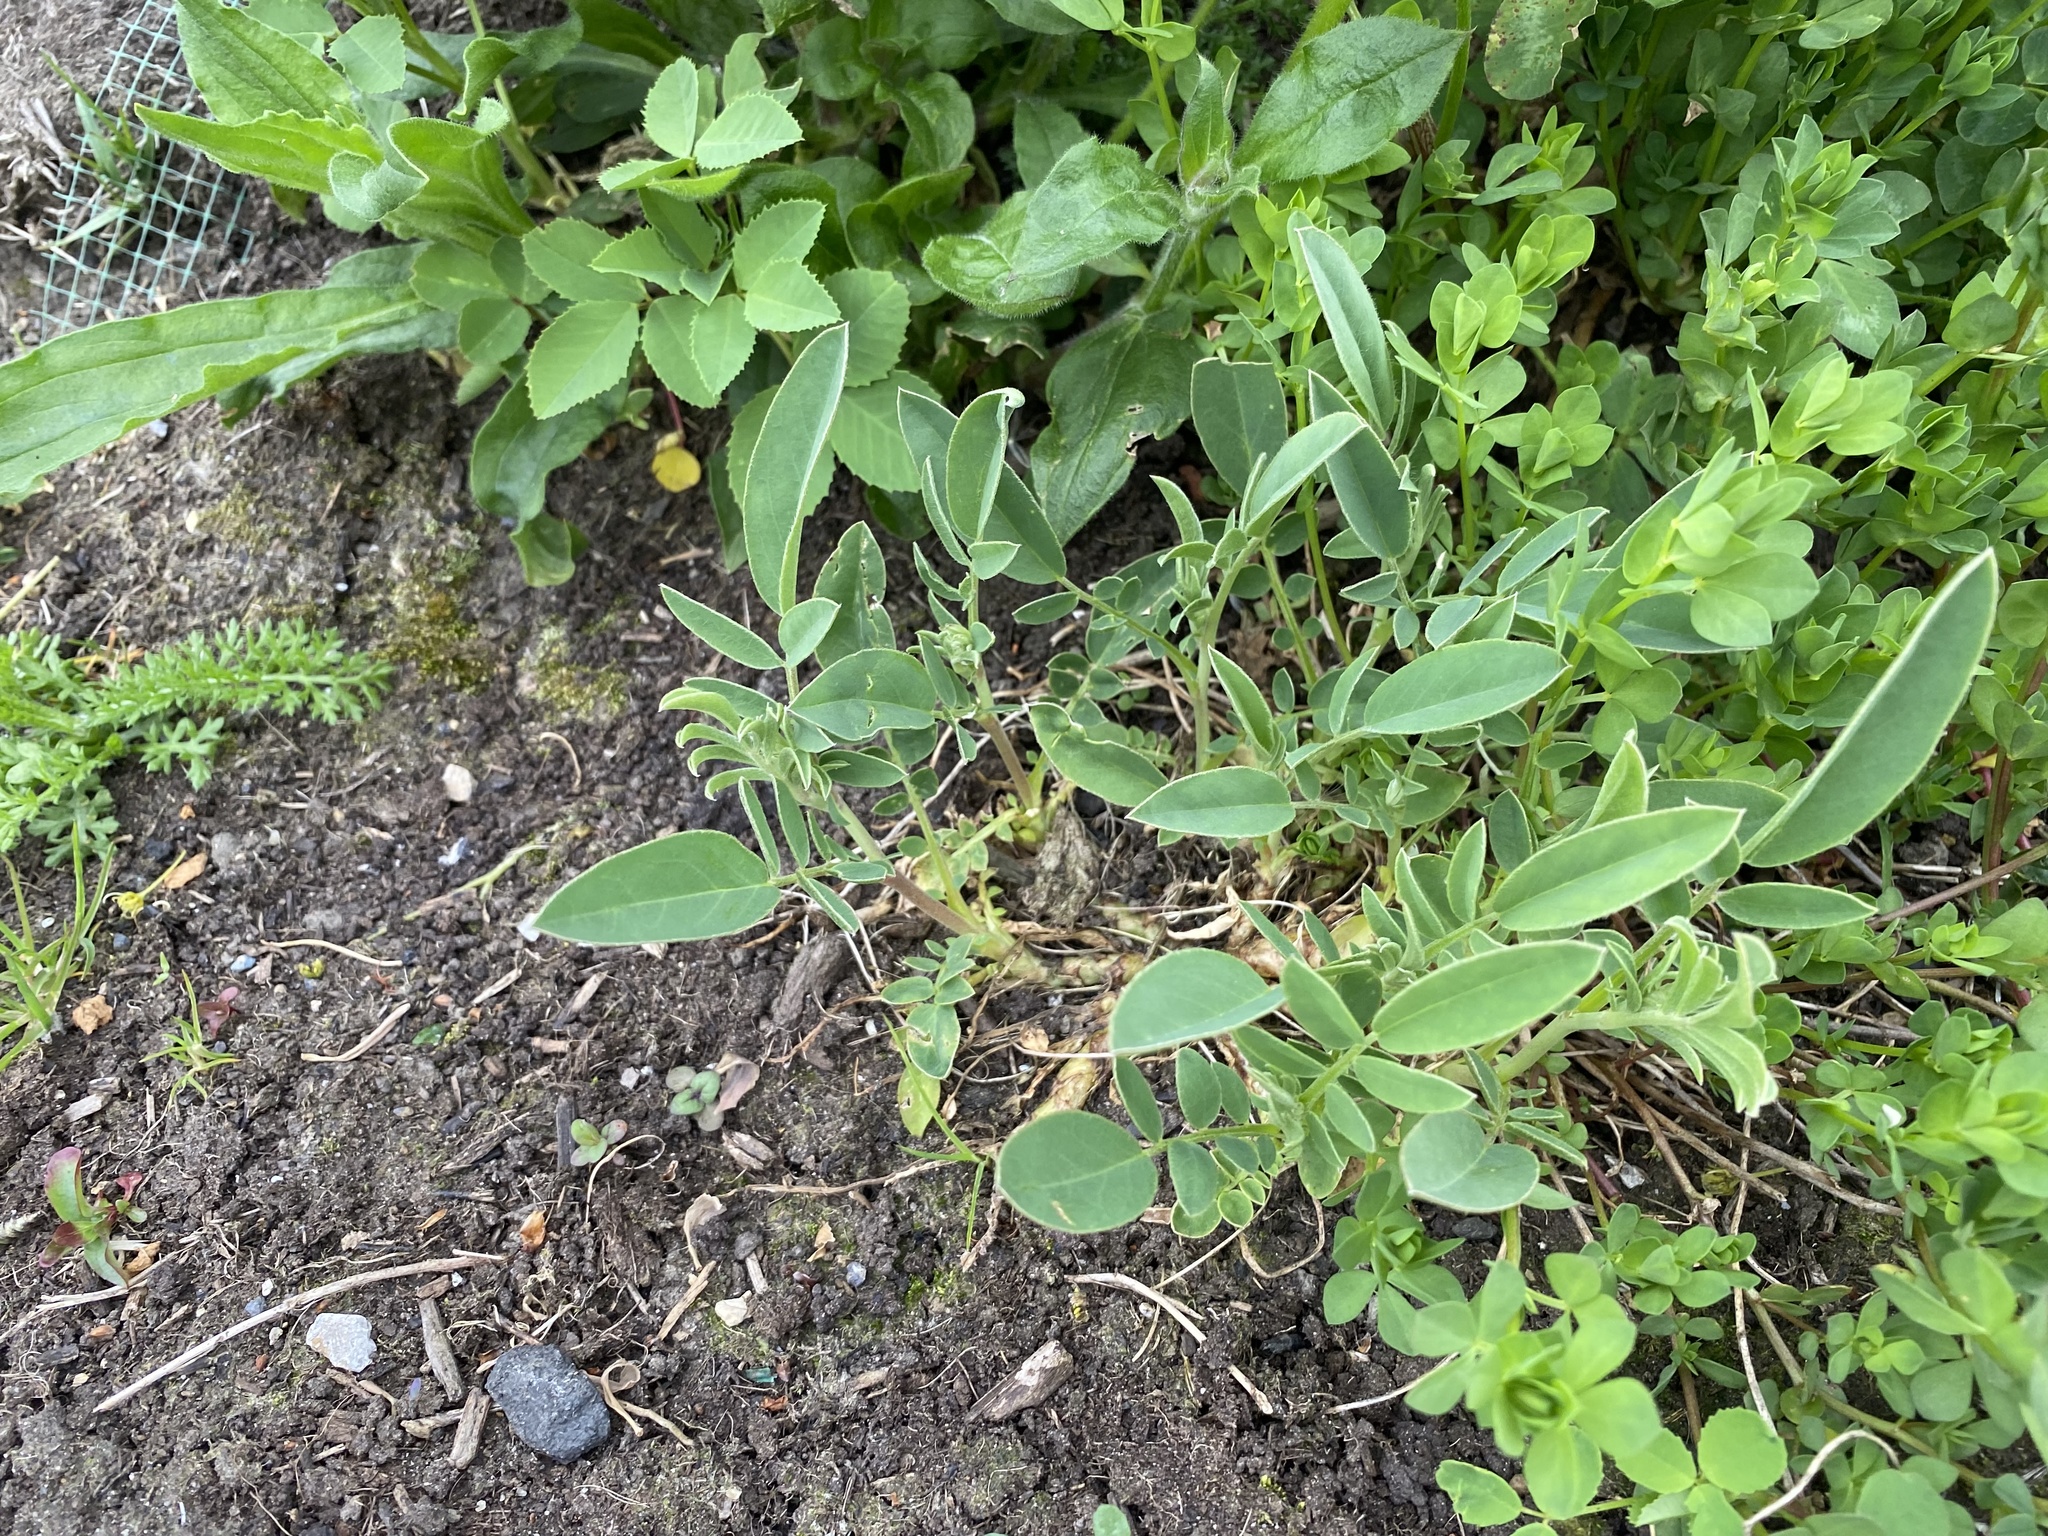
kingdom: Plantae
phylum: Tracheophyta
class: Magnoliopsida
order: Fabales
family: Fabaceae
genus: Anthyllis
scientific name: Anthyllis vulneraria
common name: Kidney vetch
